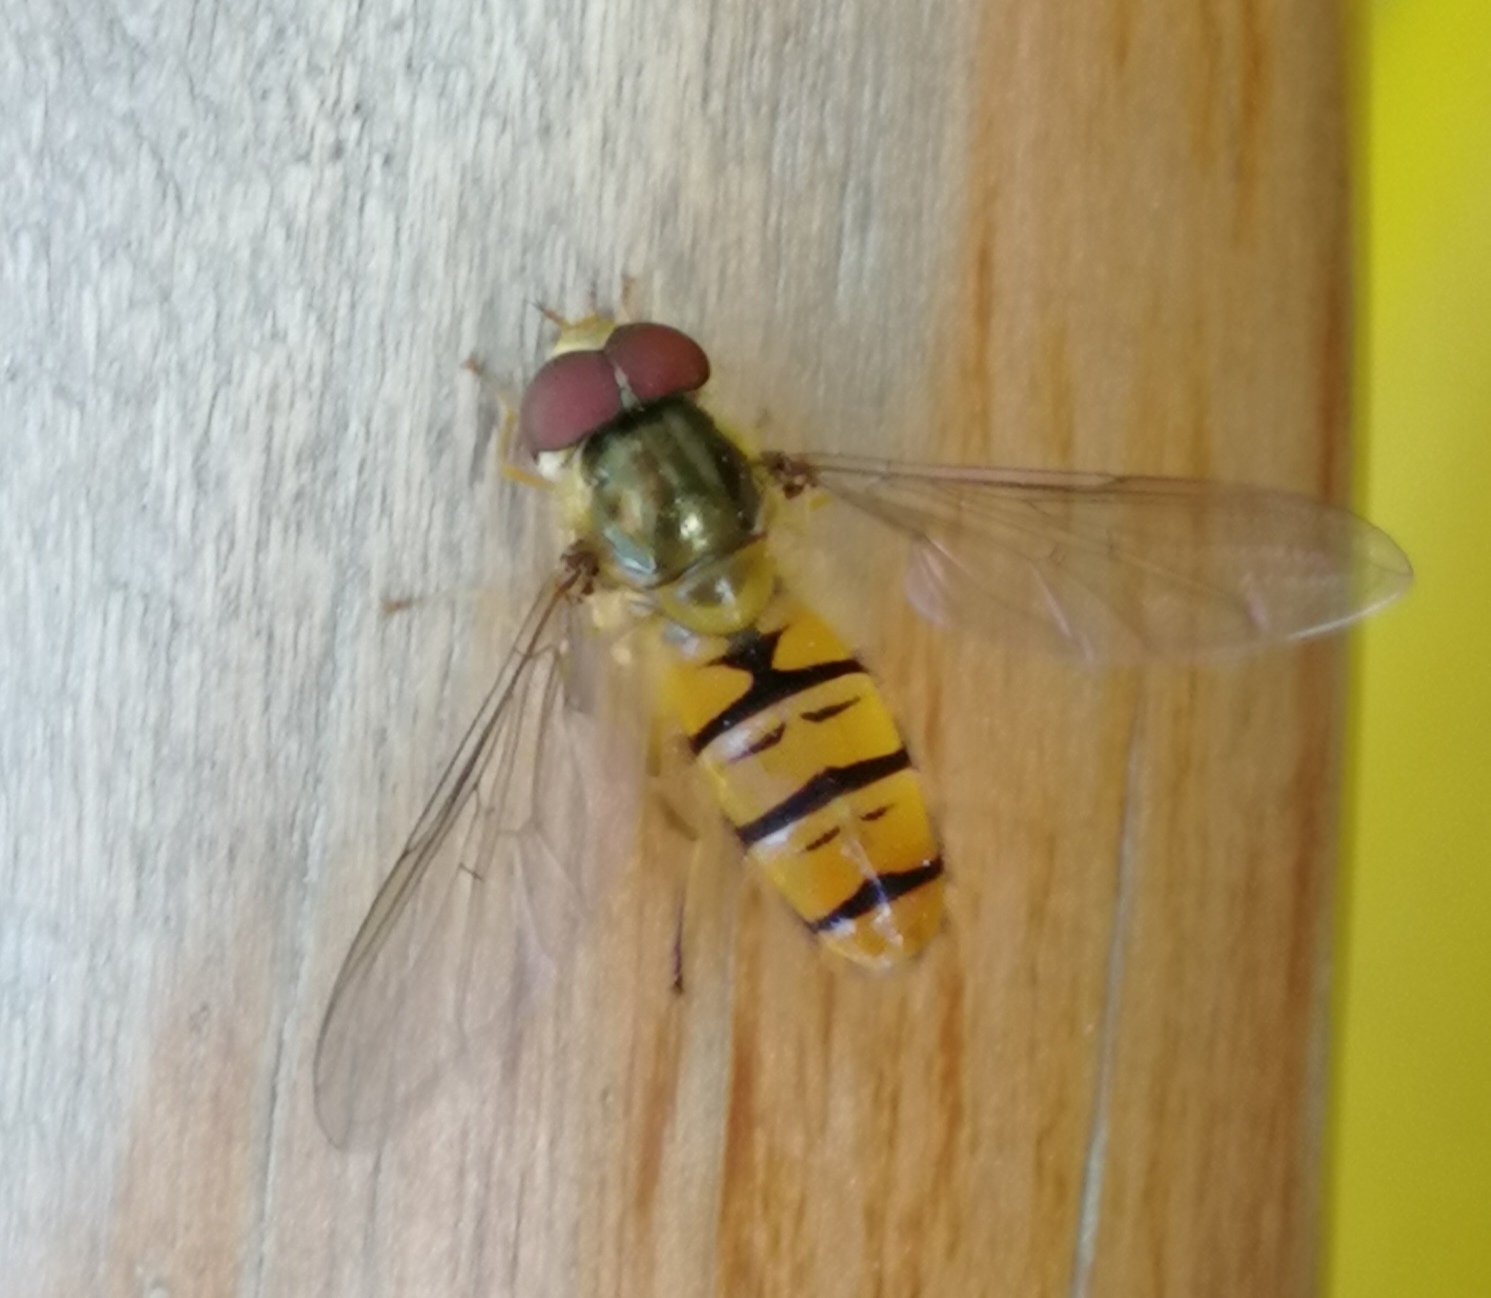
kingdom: Animalia
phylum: Arthropoda
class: Insecta
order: Diptera
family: Syrphidae
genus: Episyrphus
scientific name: Episyrphus balteatus
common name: Marmalade hoverfly
